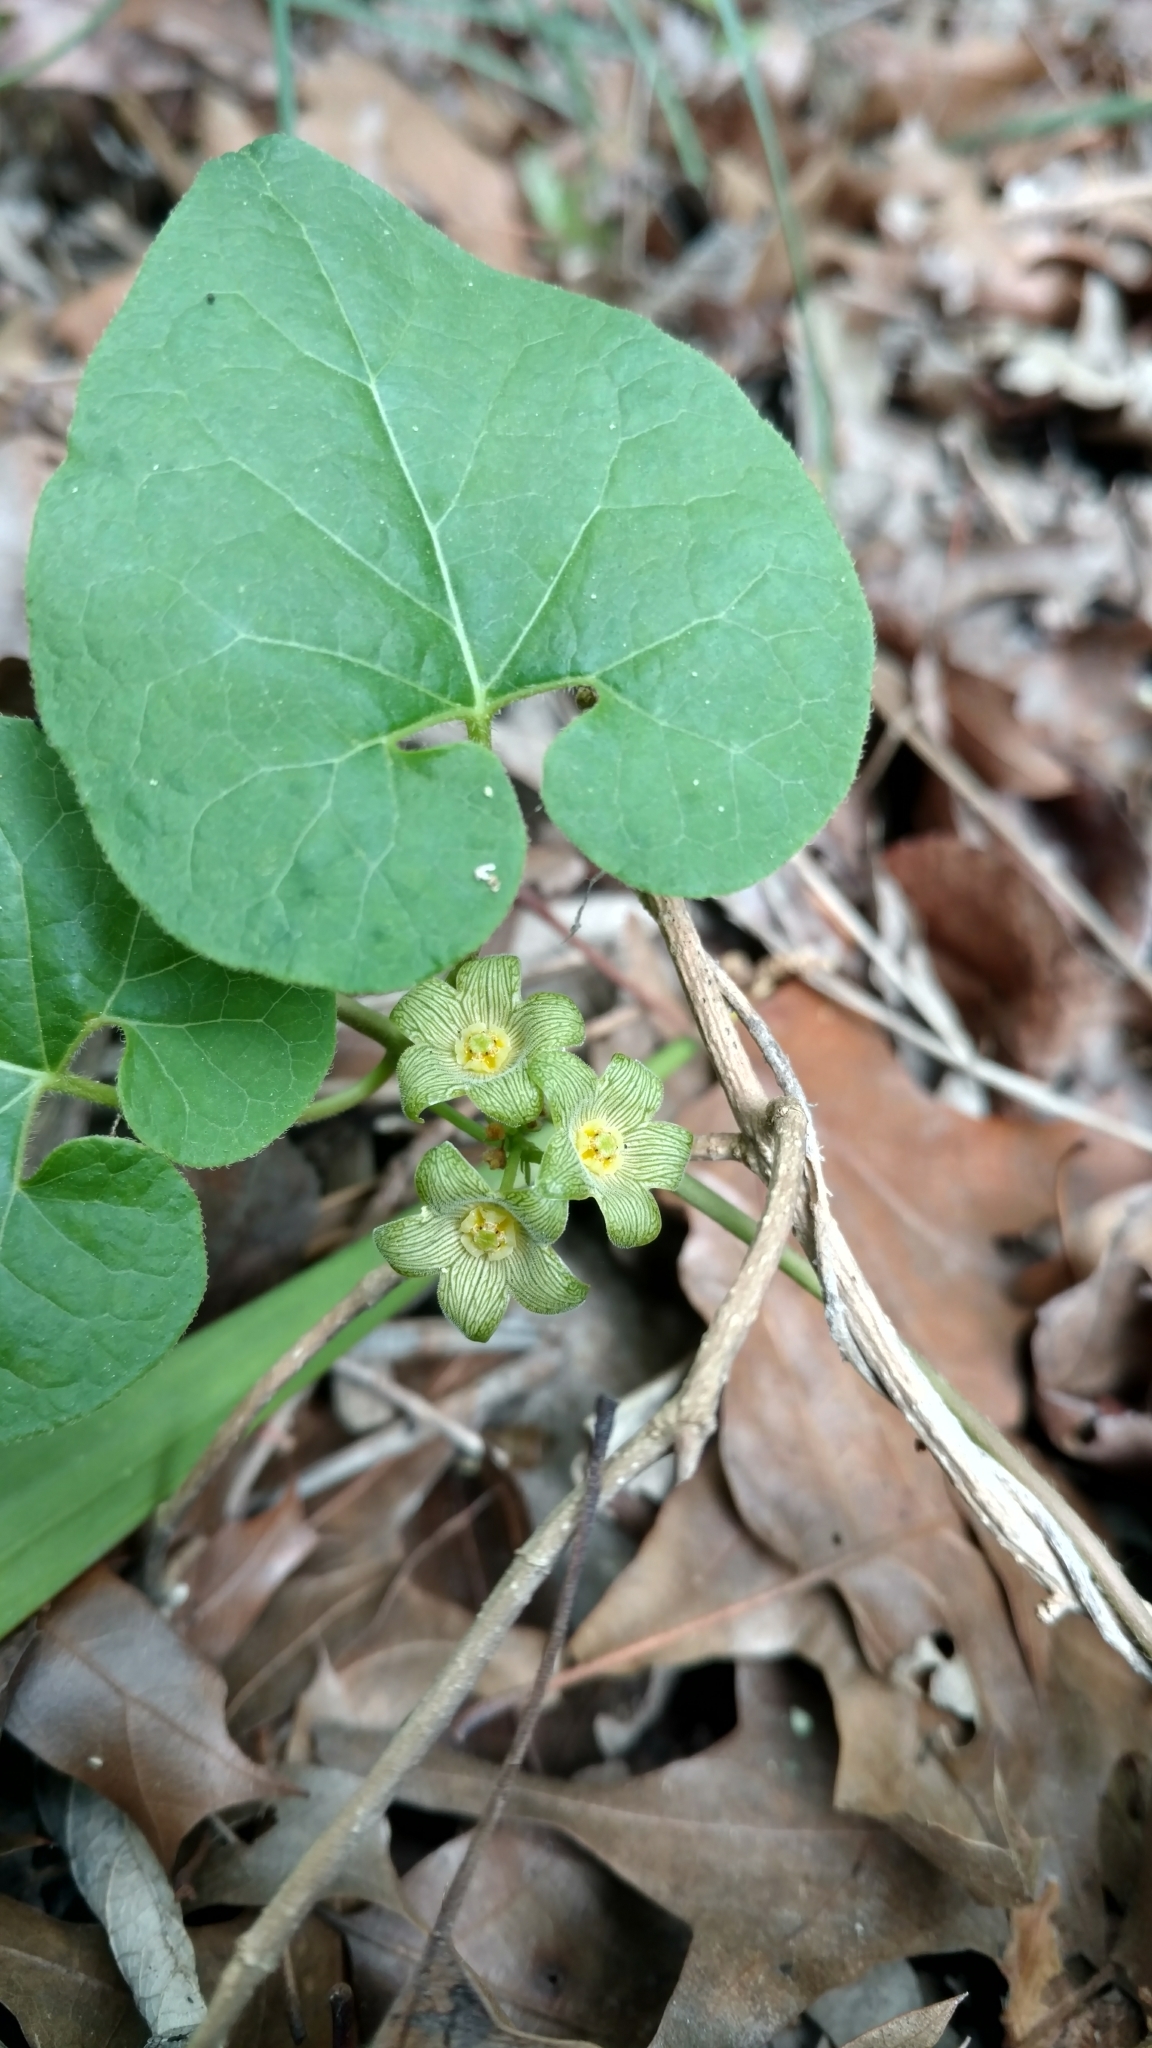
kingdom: Plantae
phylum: Tracheophyta
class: Magnoliopsida
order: Gentianales
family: Apocynaceae
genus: Matelea
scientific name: Matelea edwardsensis
